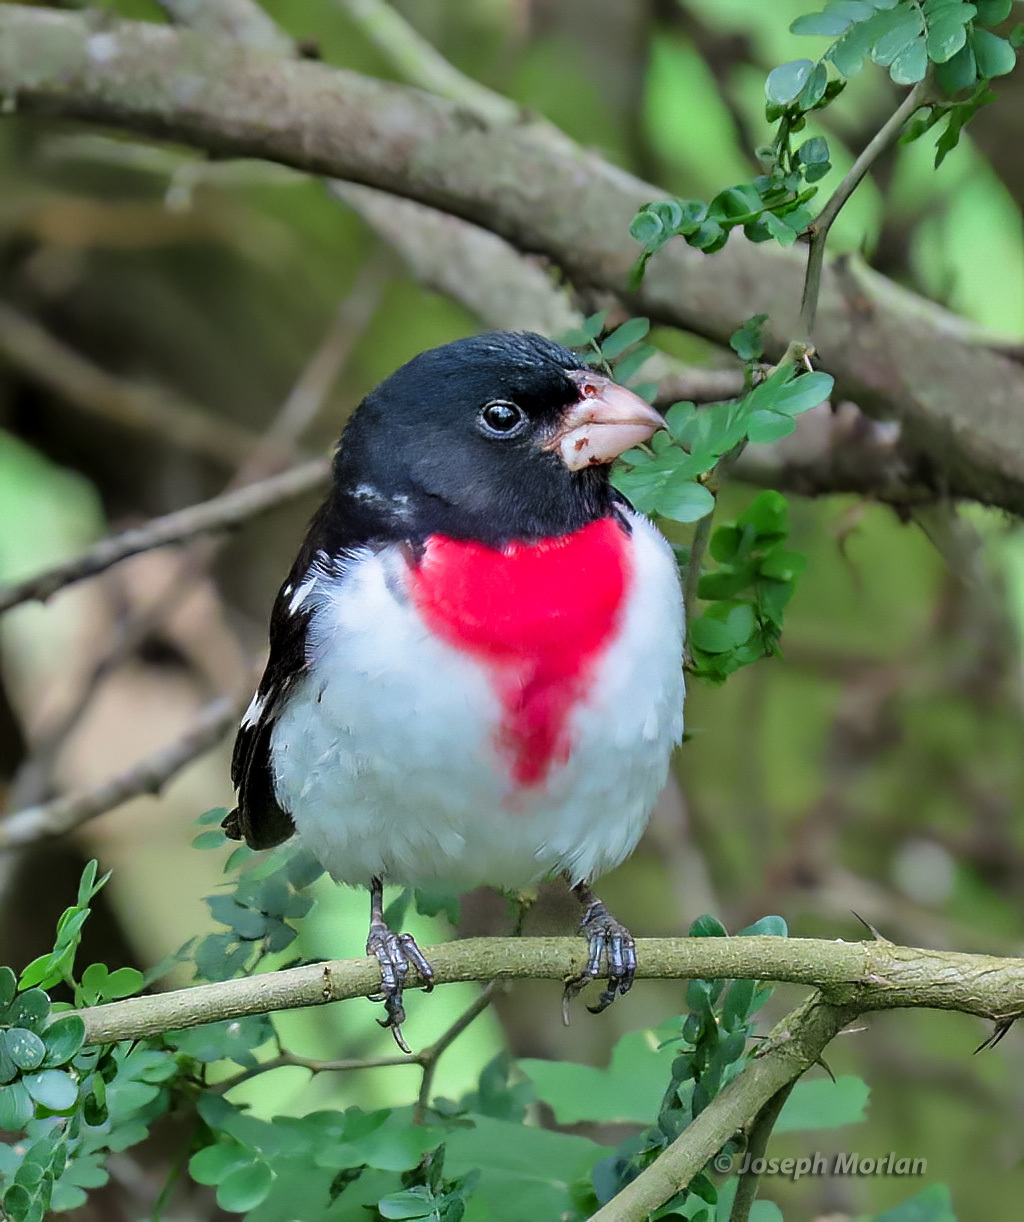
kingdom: Animalia
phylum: Chordata
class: Aves
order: Passeriformes
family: Cardinalidae
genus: Pheucticus
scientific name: Pheucticus ludovicianus
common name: Rose-breasted grosbeak
